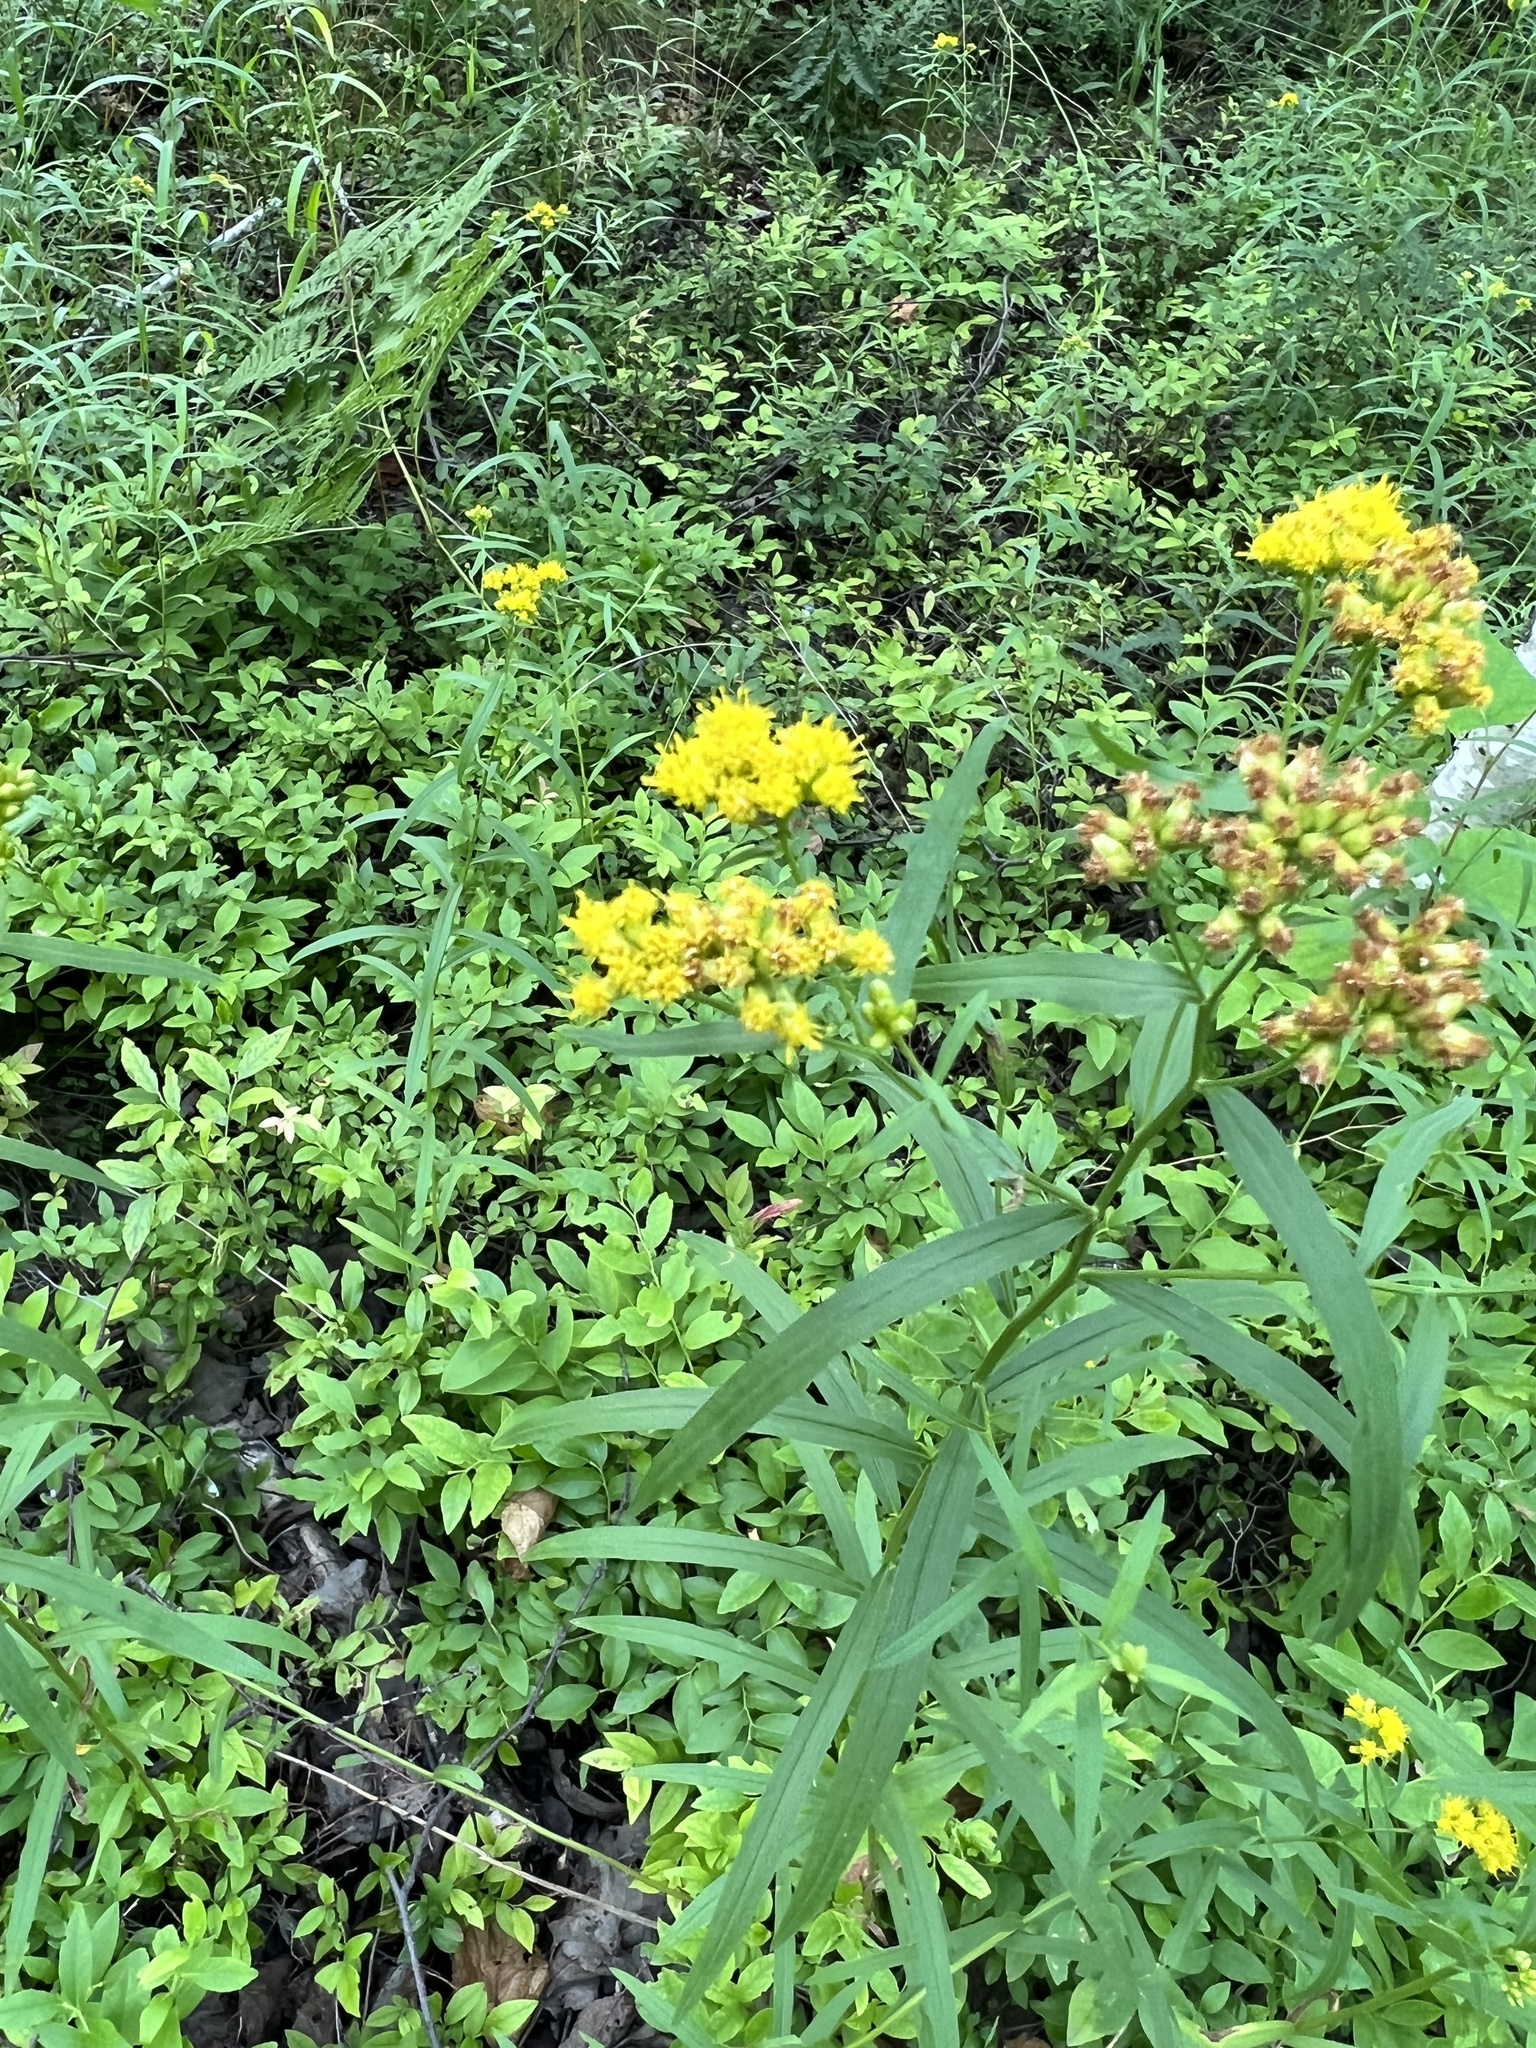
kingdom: Plantae
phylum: Tracheophyta
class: Magnoliopsida
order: Asterales
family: Asteraceae
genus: Euthamia
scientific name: Euthamia graminifolia
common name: Common goldentop
